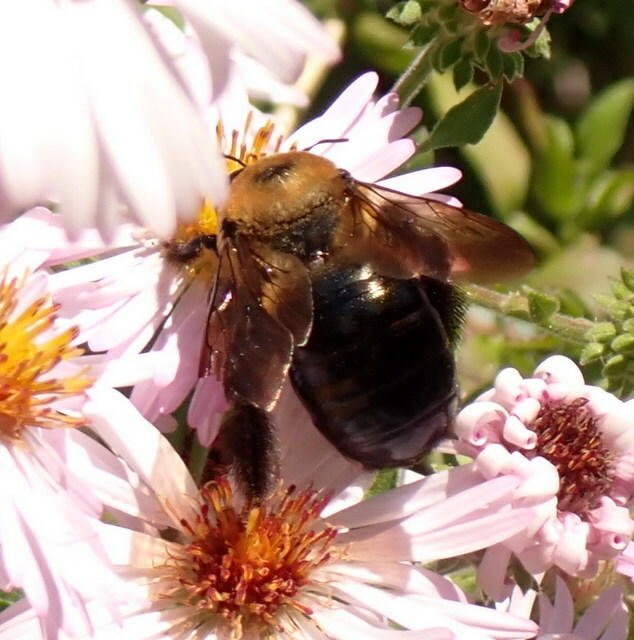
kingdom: Animalia
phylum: Arthropoda
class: Insecta
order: Hymenoptera
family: Apidae
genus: Xylocopa
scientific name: Xylocopa virginica
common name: Carpenter bee
